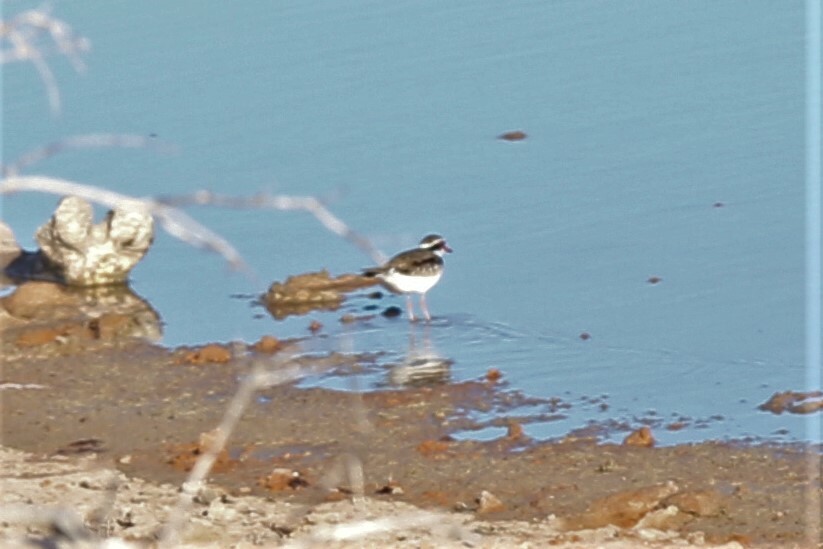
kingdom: Animalia
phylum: Chordata
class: Aves
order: Charadriiformes
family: Charadriidae
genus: Elseyornis
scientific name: Elseyornis melanops
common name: Black-fronted dotterel
